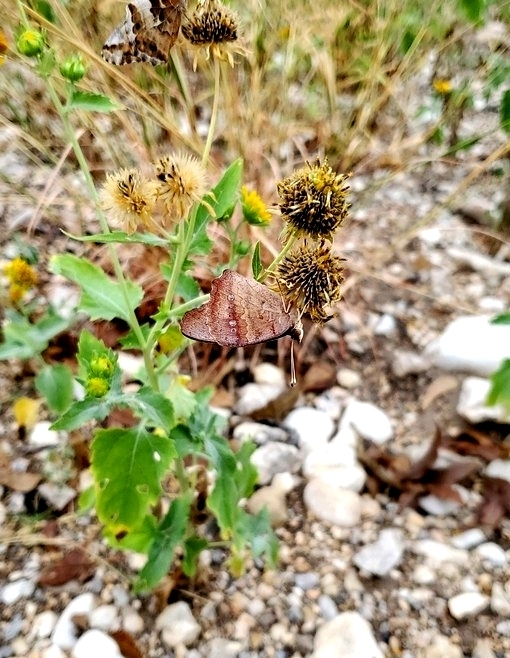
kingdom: Animalia
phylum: Arthropoda
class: Insecta
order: Lepidoptera
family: Nymphalidae
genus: Junonia
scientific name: Junonia coenia
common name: Common buckeye
